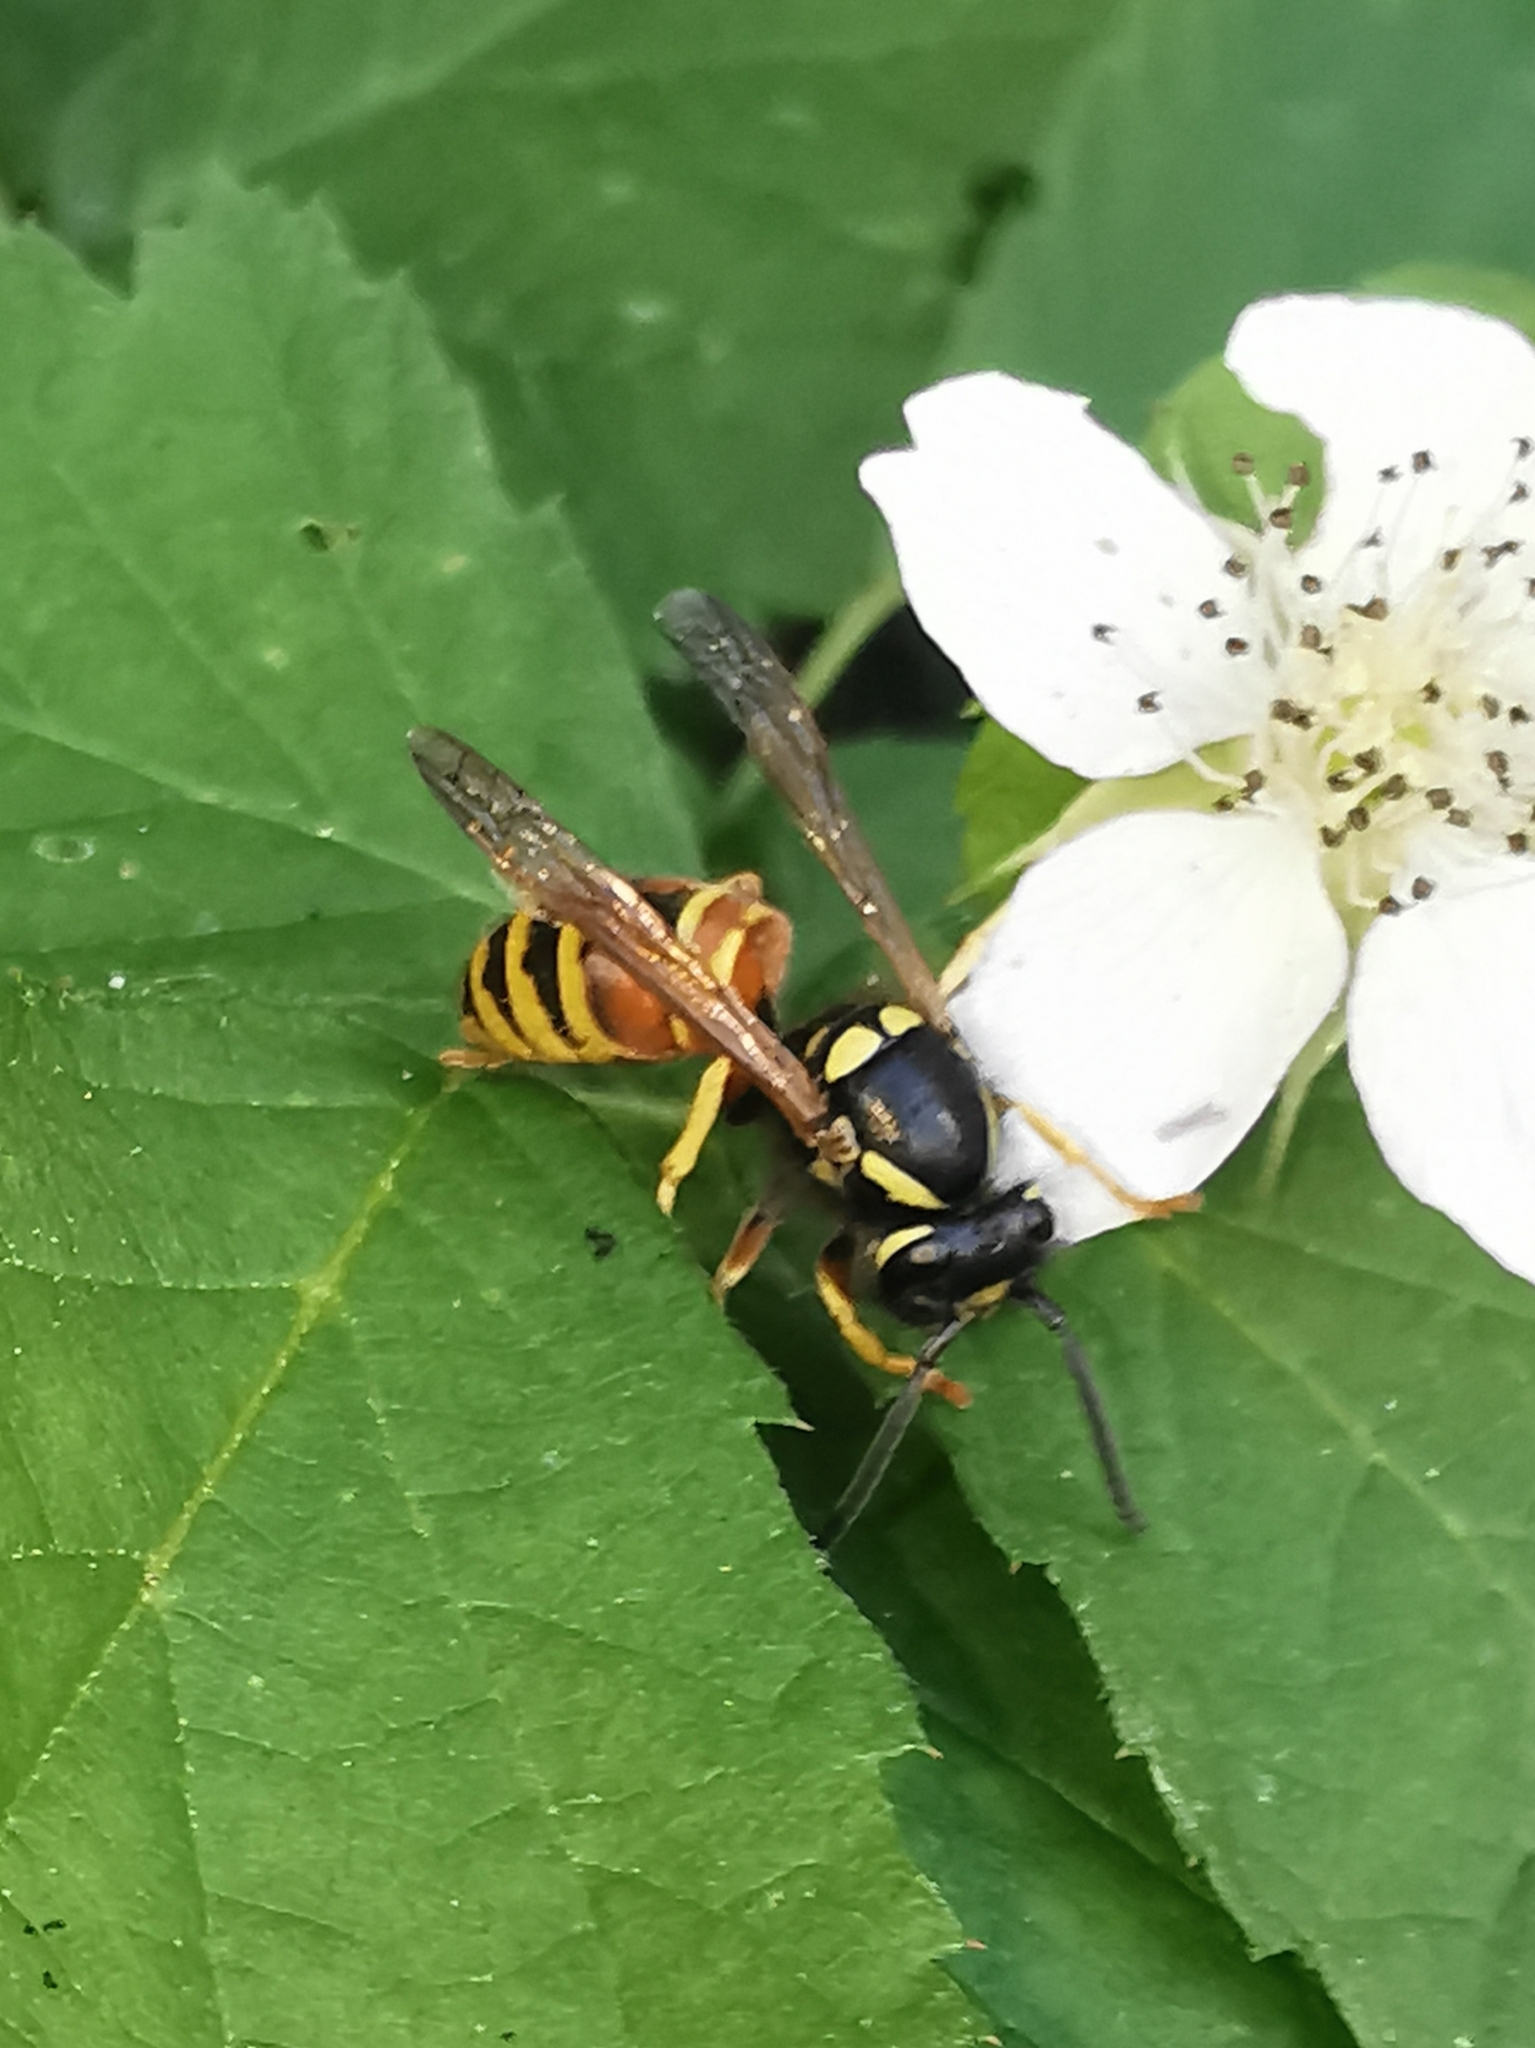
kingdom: Animalia
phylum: Arthropoda
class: Insecta
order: Hymenoptera
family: Vespidae
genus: Vespula
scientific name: Vespula rufa
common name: Red wasp
